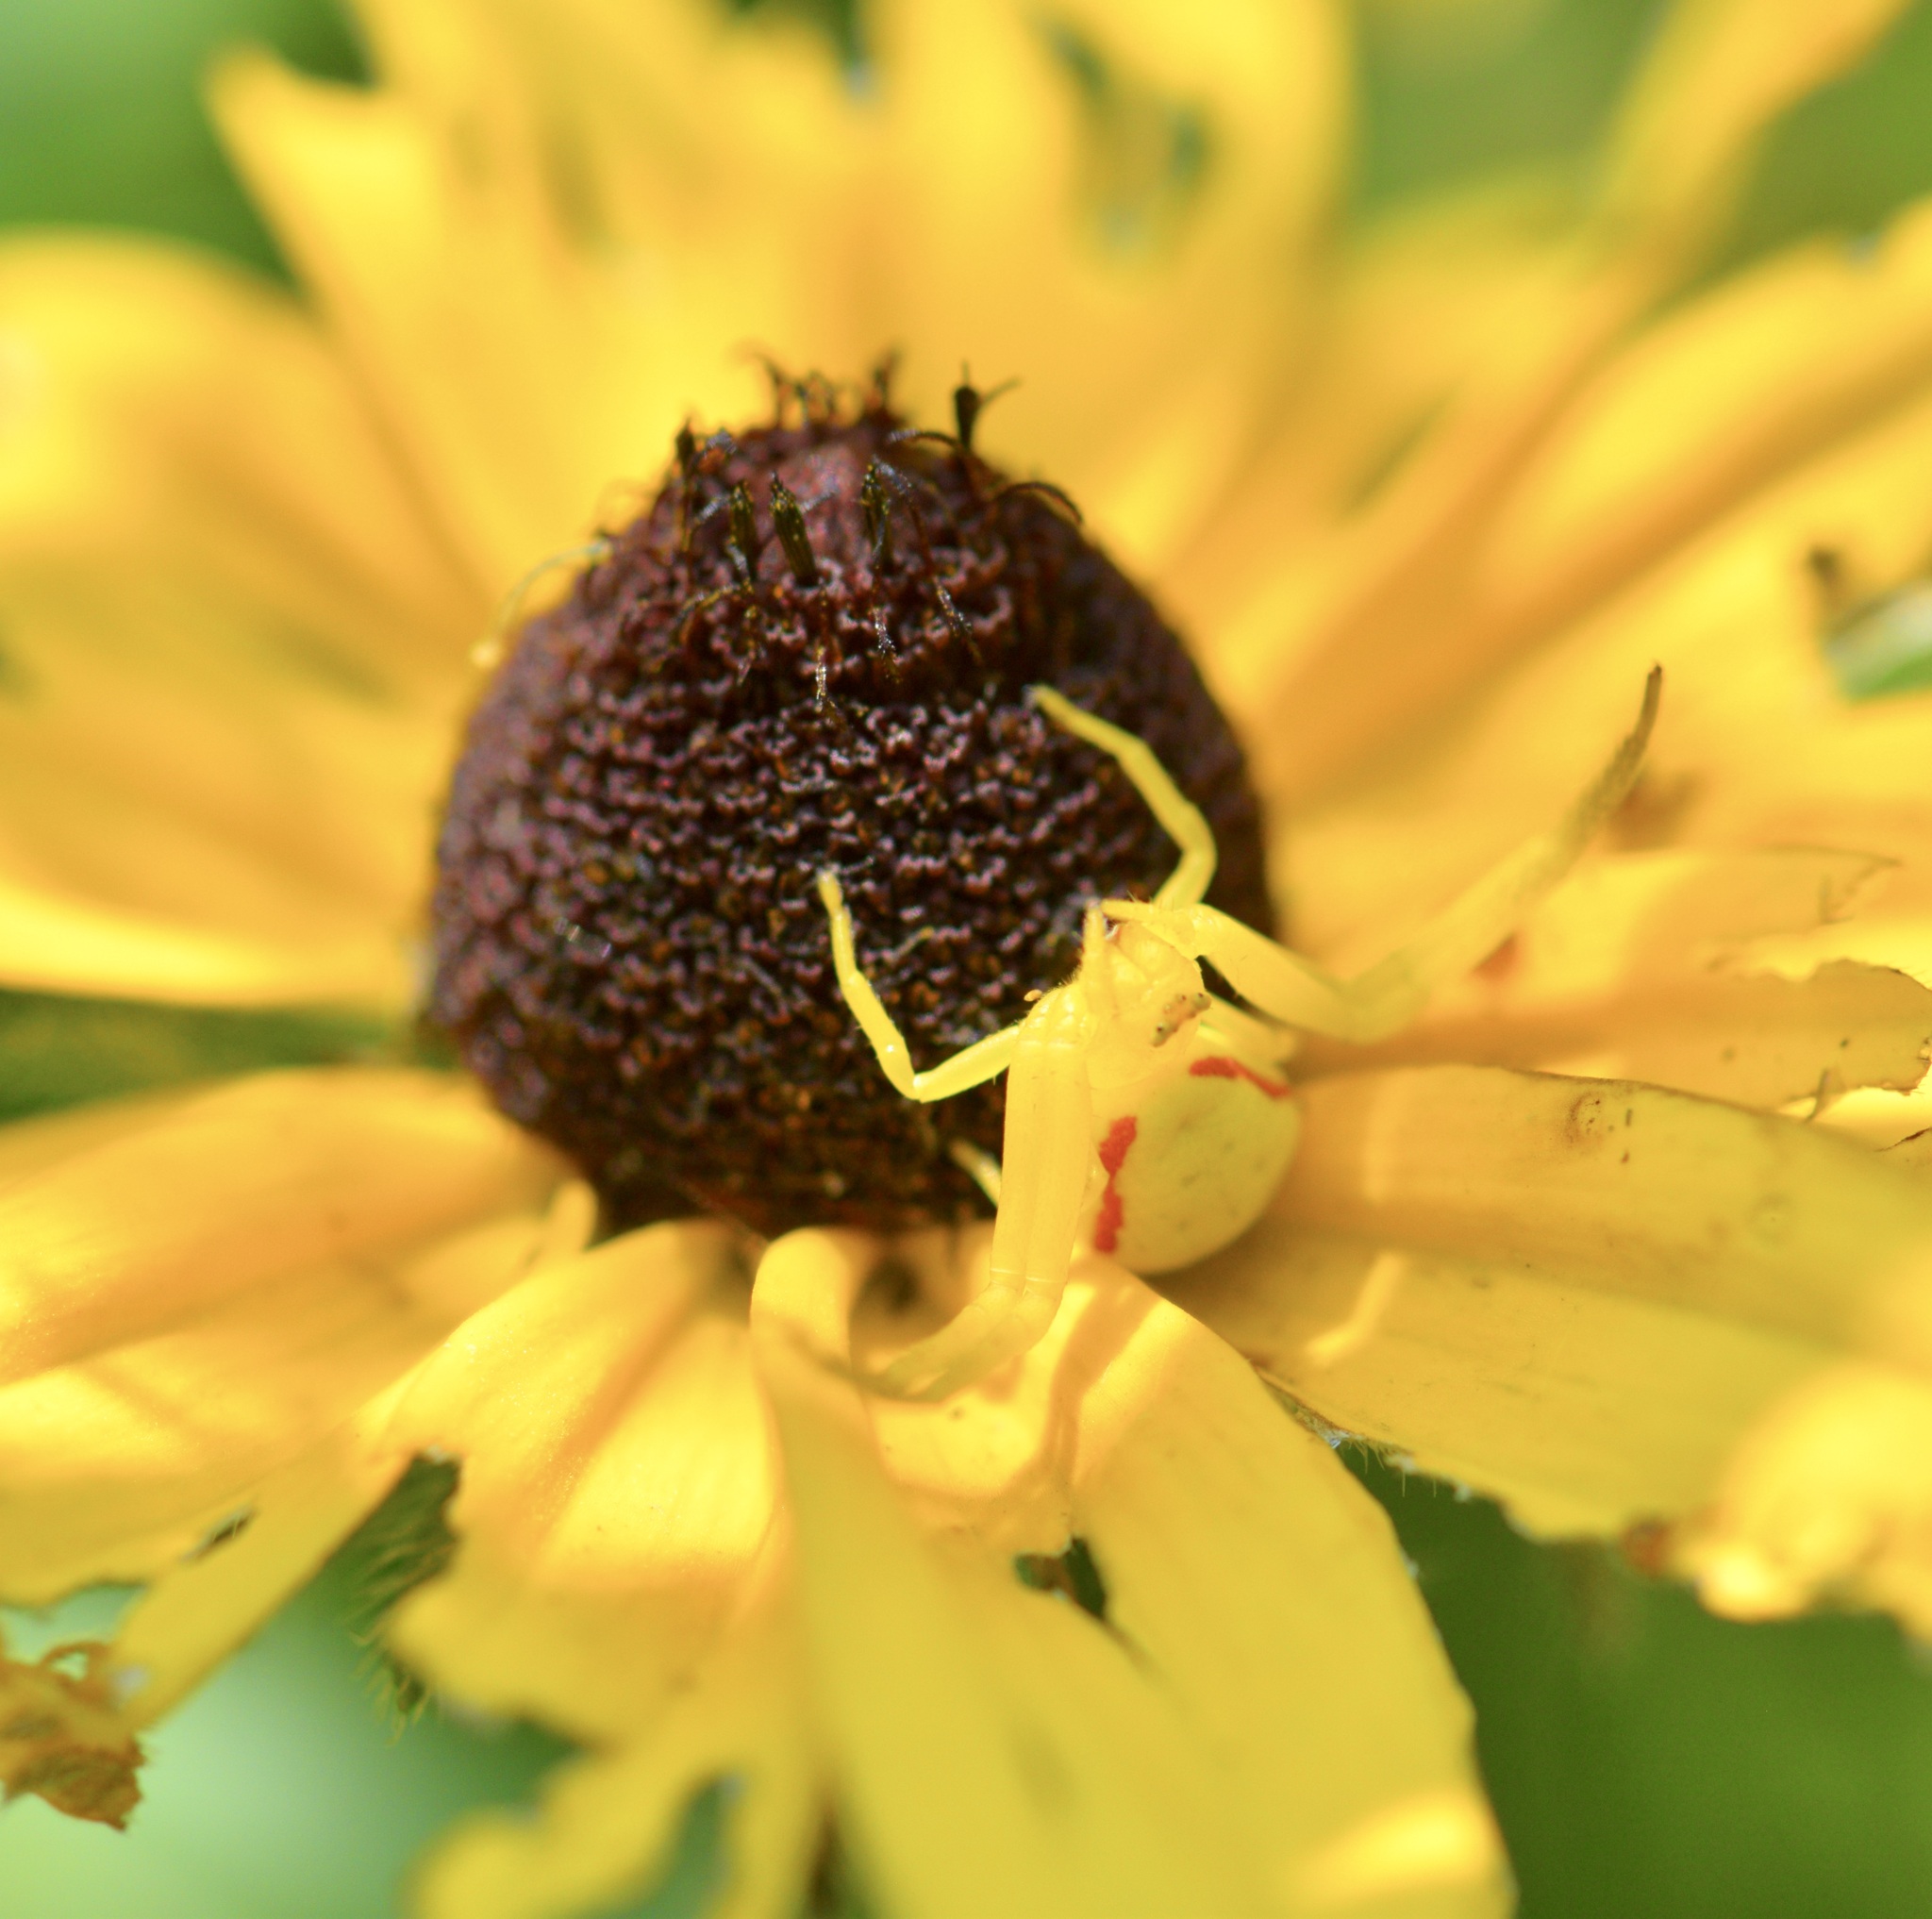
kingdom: Animalia
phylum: Arthropoda
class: Arachnida
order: Araneae
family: Thomisidae
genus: Misumena
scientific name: Misumena vatia
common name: Goldenrod crab spider
